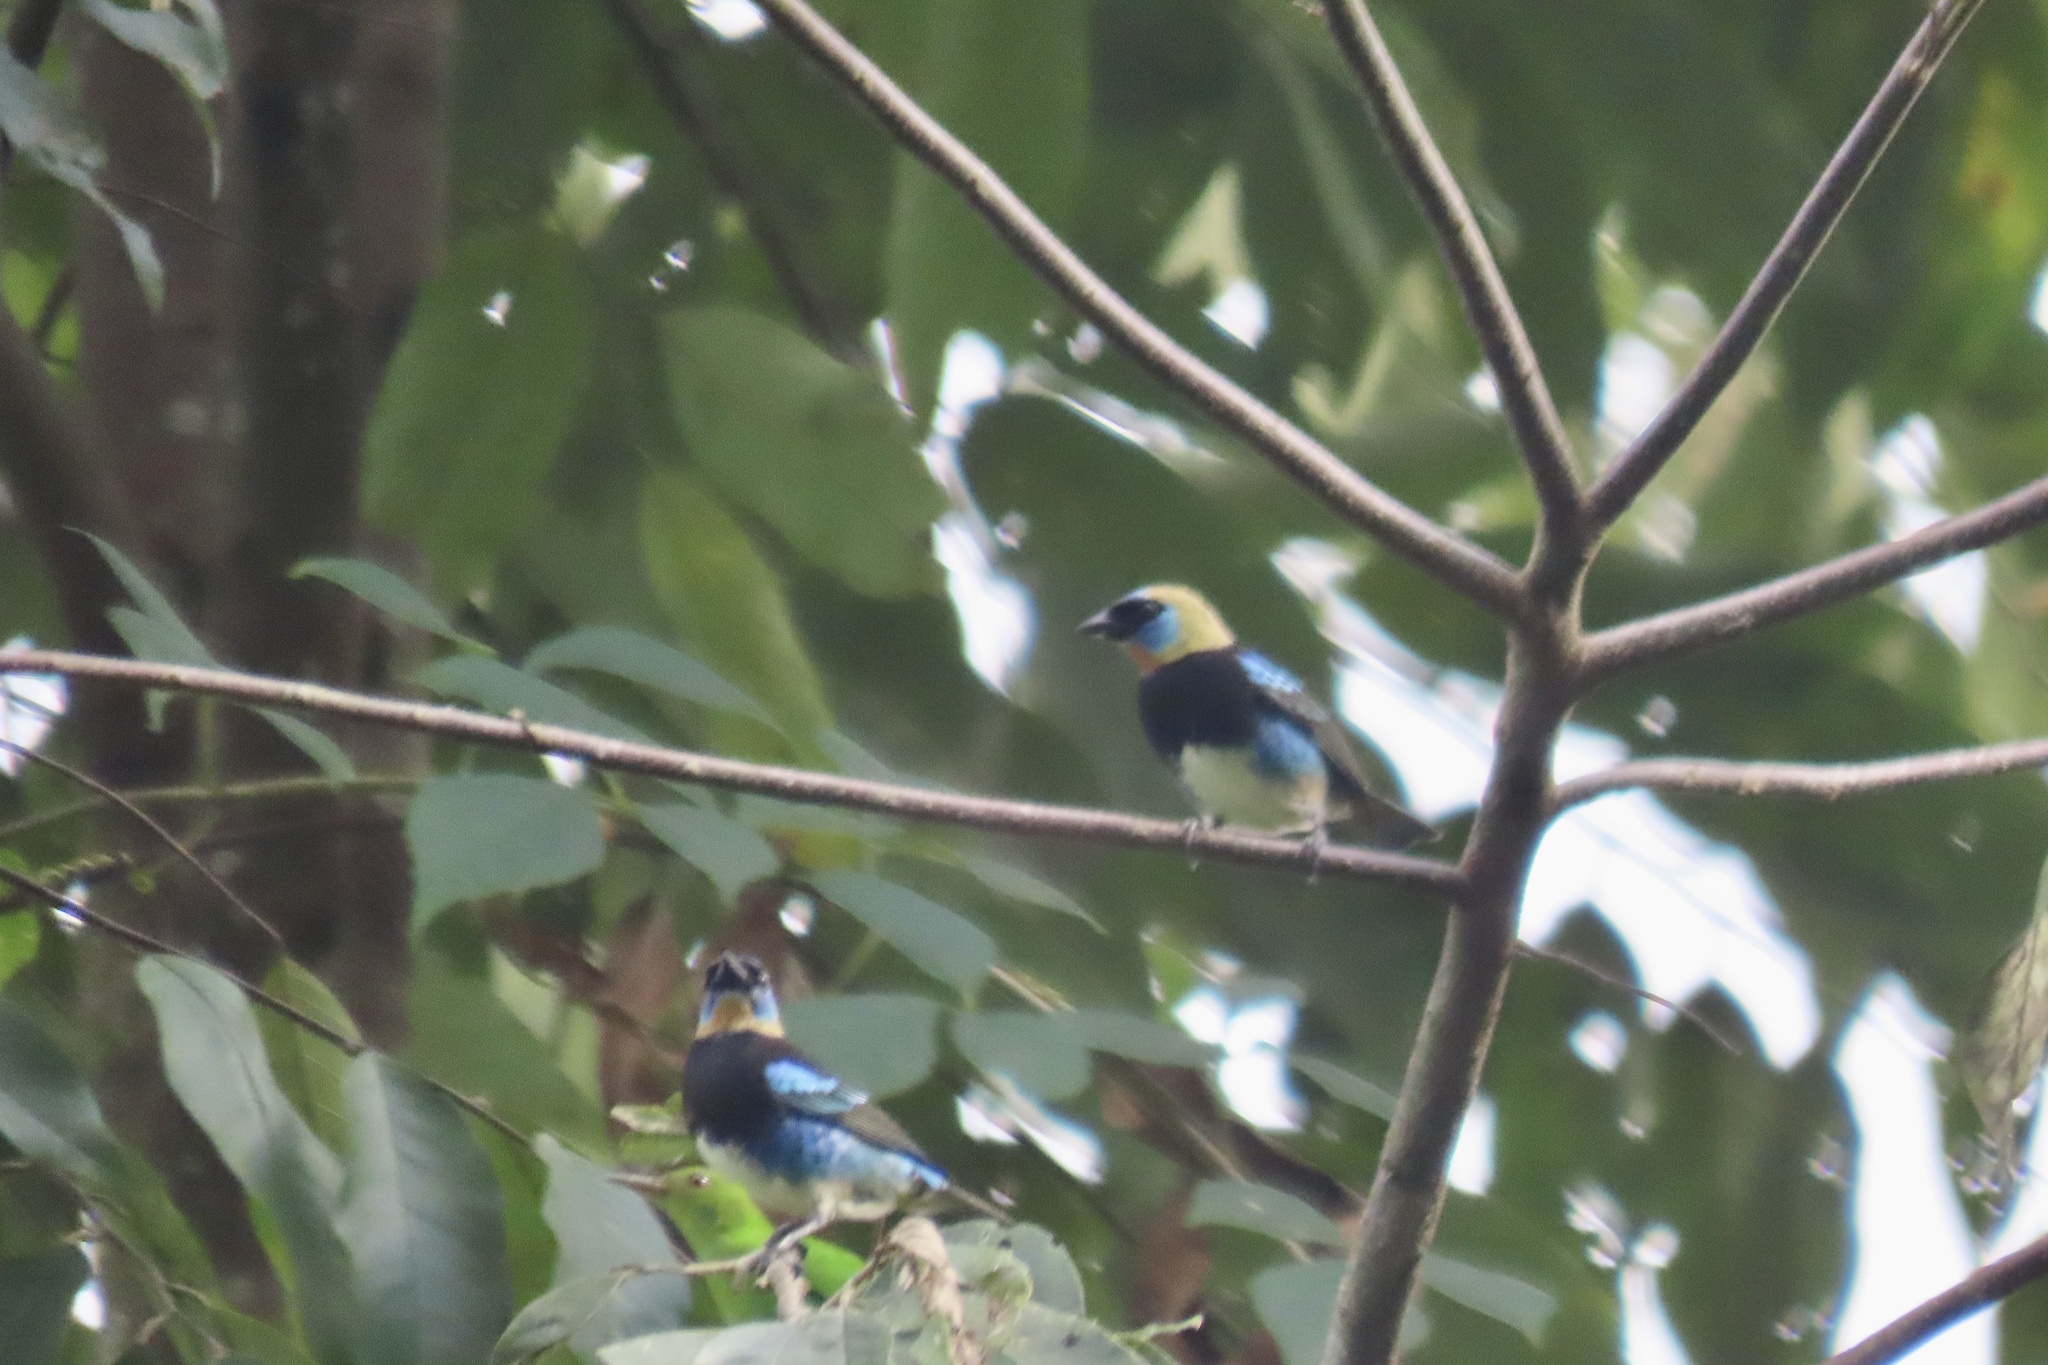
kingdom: Animalia
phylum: Chordata
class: Aves
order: Passeriformes
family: Thraupidae
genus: Stilpnia
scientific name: Stilpnia larvata
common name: Golden-hooded tanager
